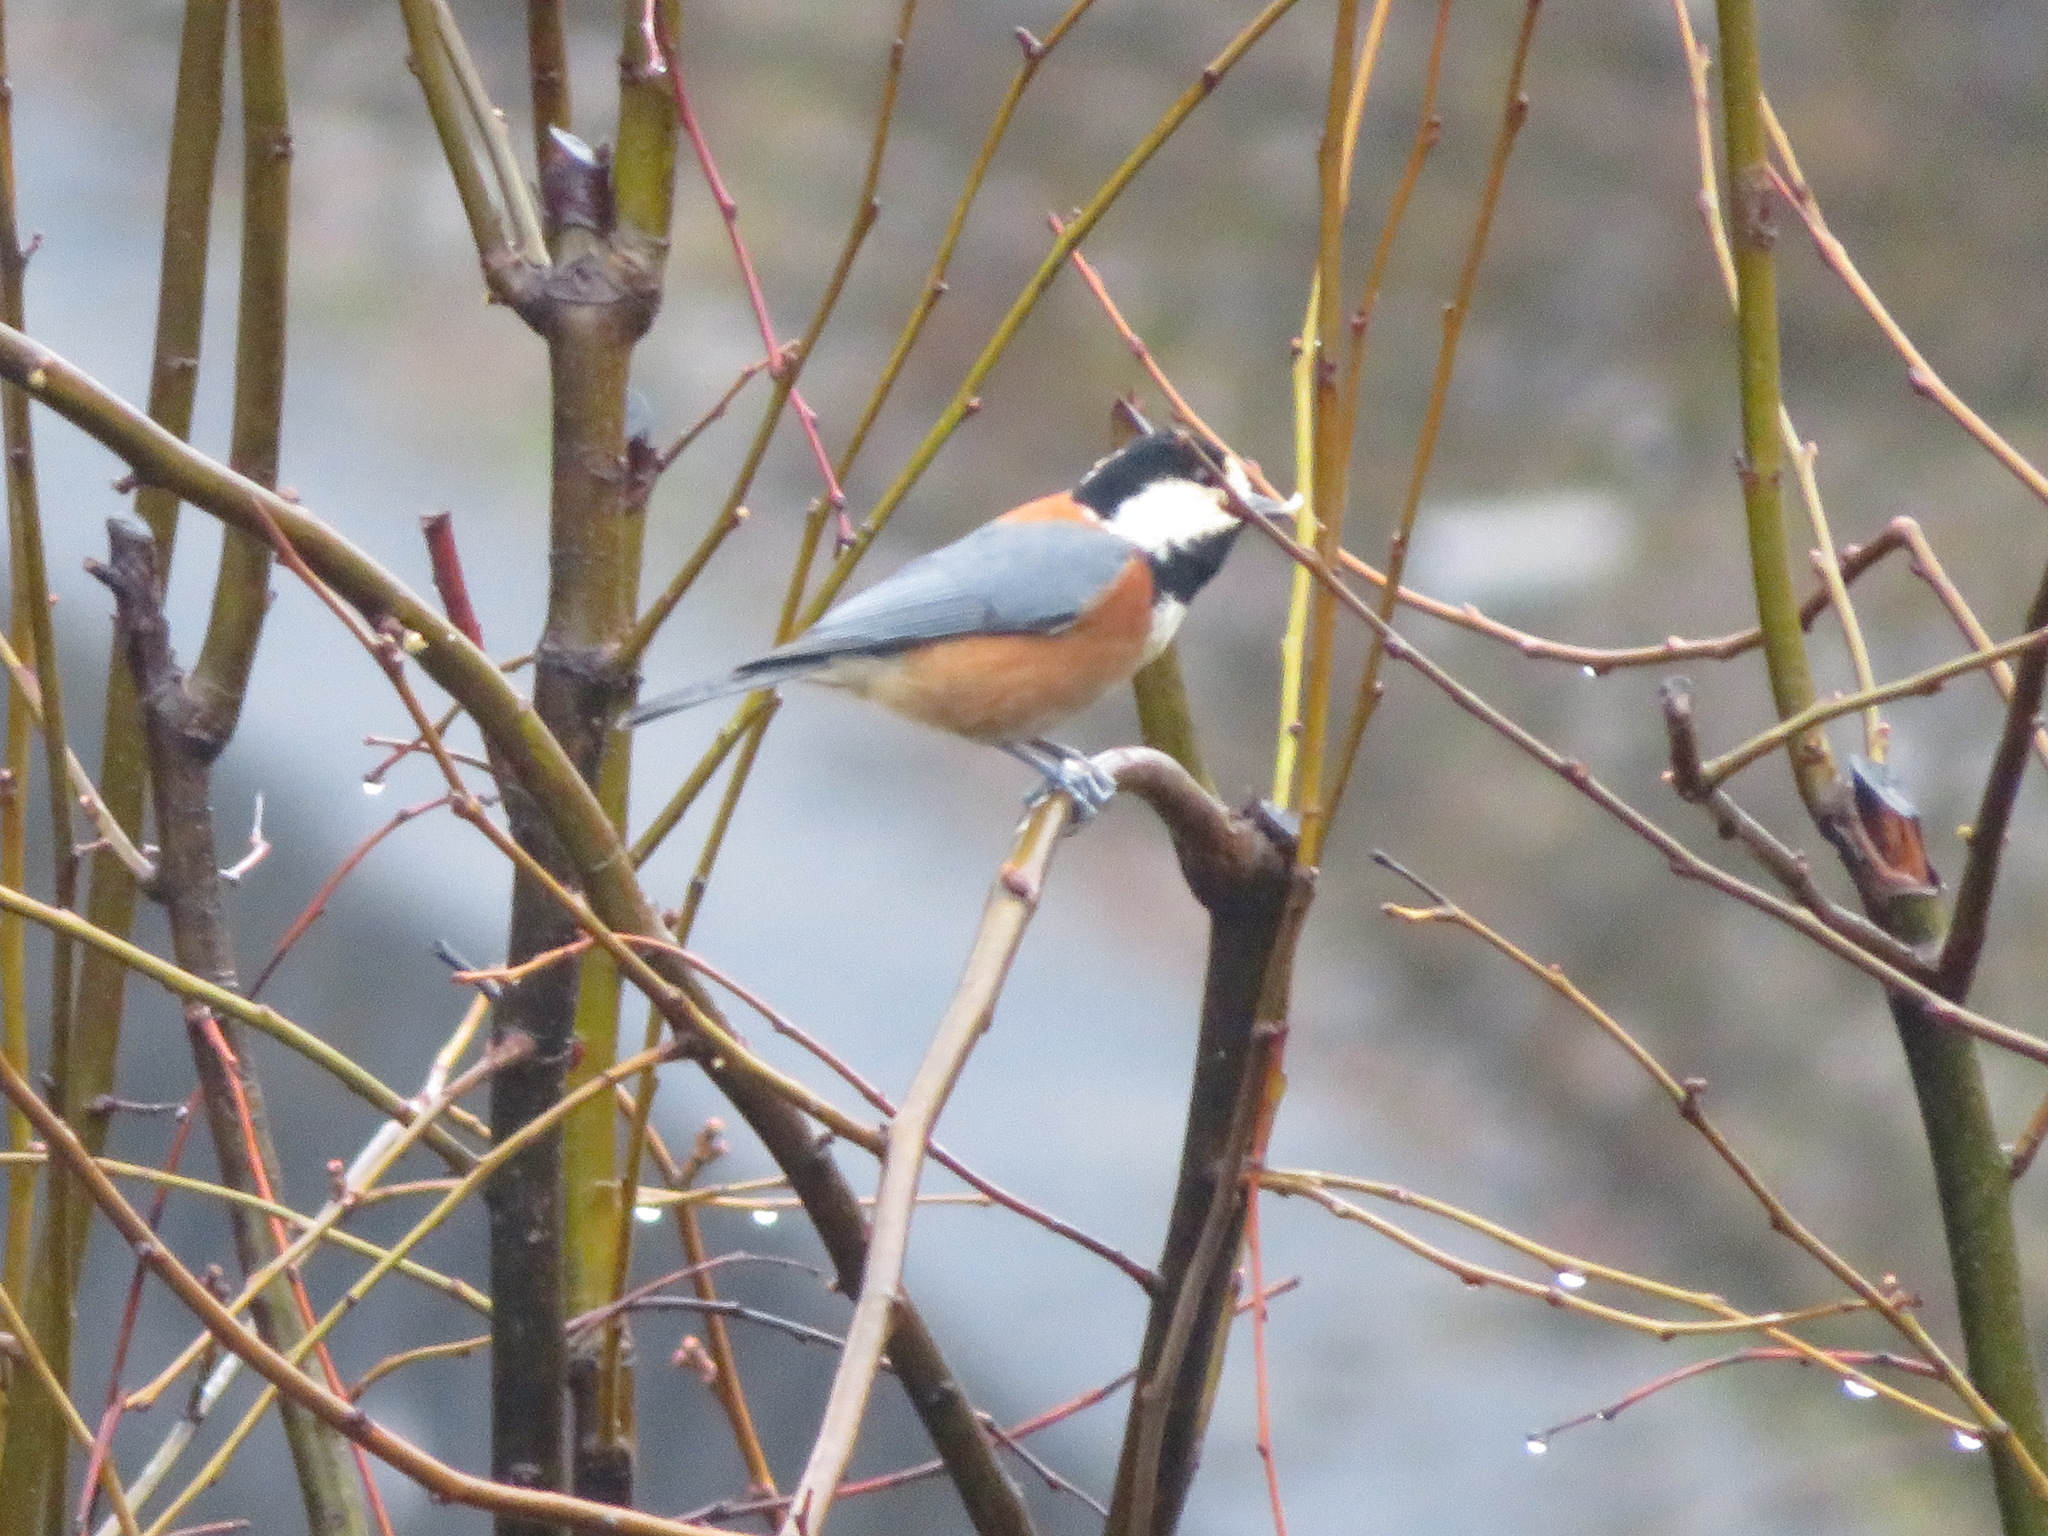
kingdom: Animalia
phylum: Chordata
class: Aves
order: Passeriformes
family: Paridae
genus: Poecile
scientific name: Poecile varius
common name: Varied tit
